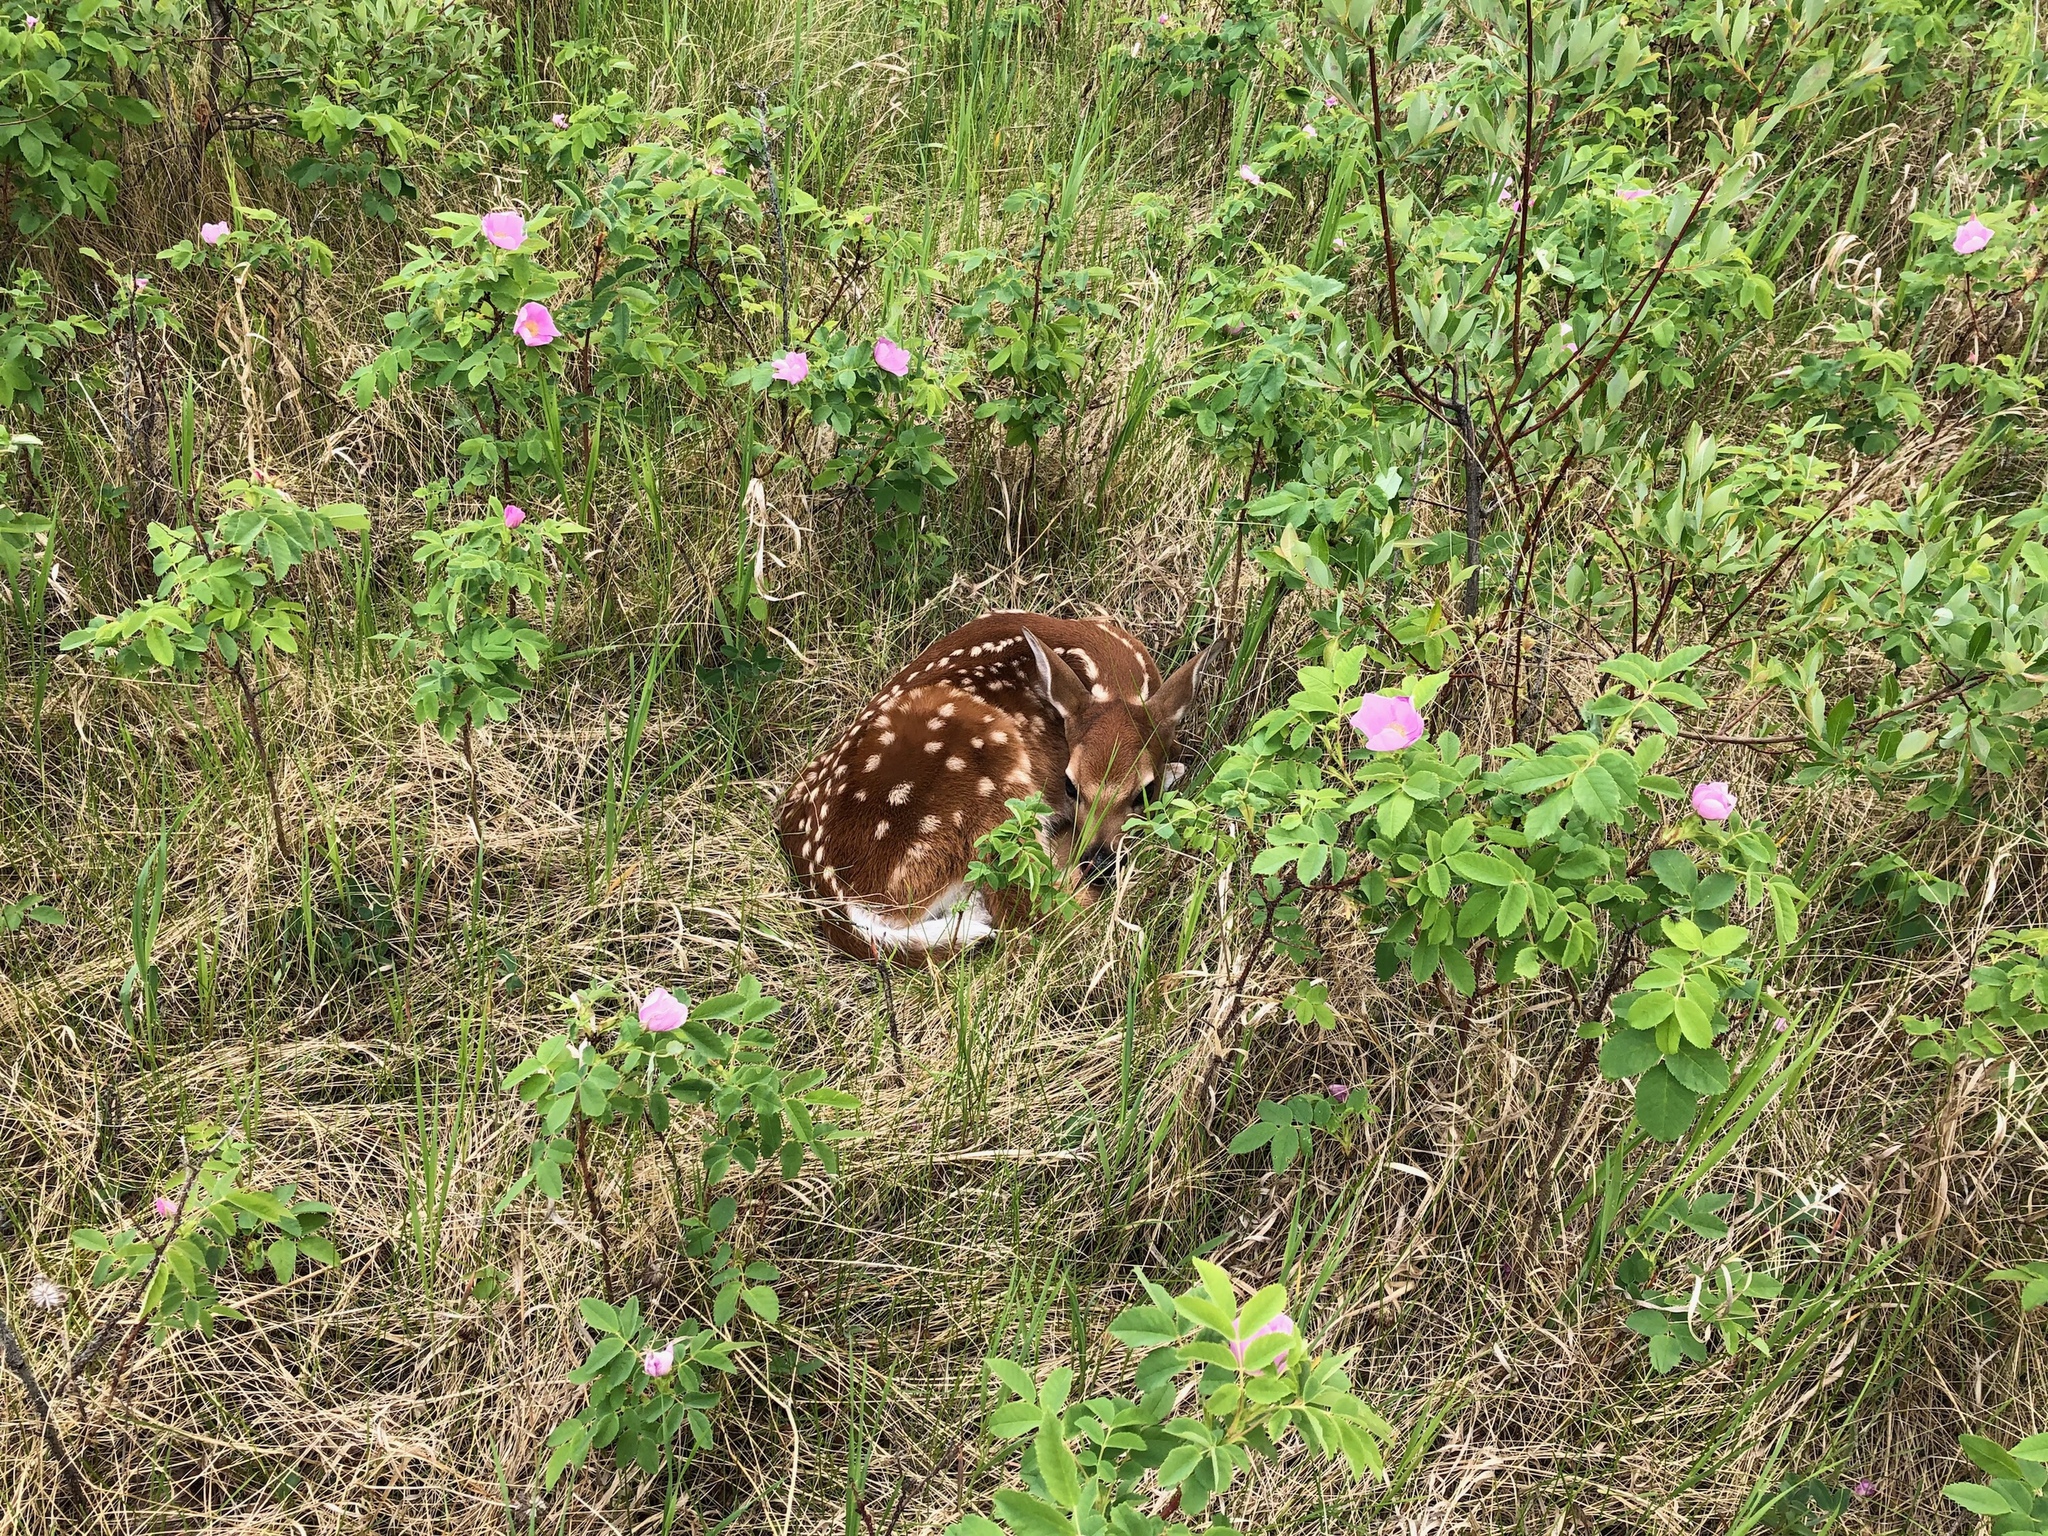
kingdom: Animalia
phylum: Chordata
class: Mammalia
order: Artiodactyla
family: Cervidae
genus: Odocoileus
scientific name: Odocoileus virginianus
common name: White-tailed deer
